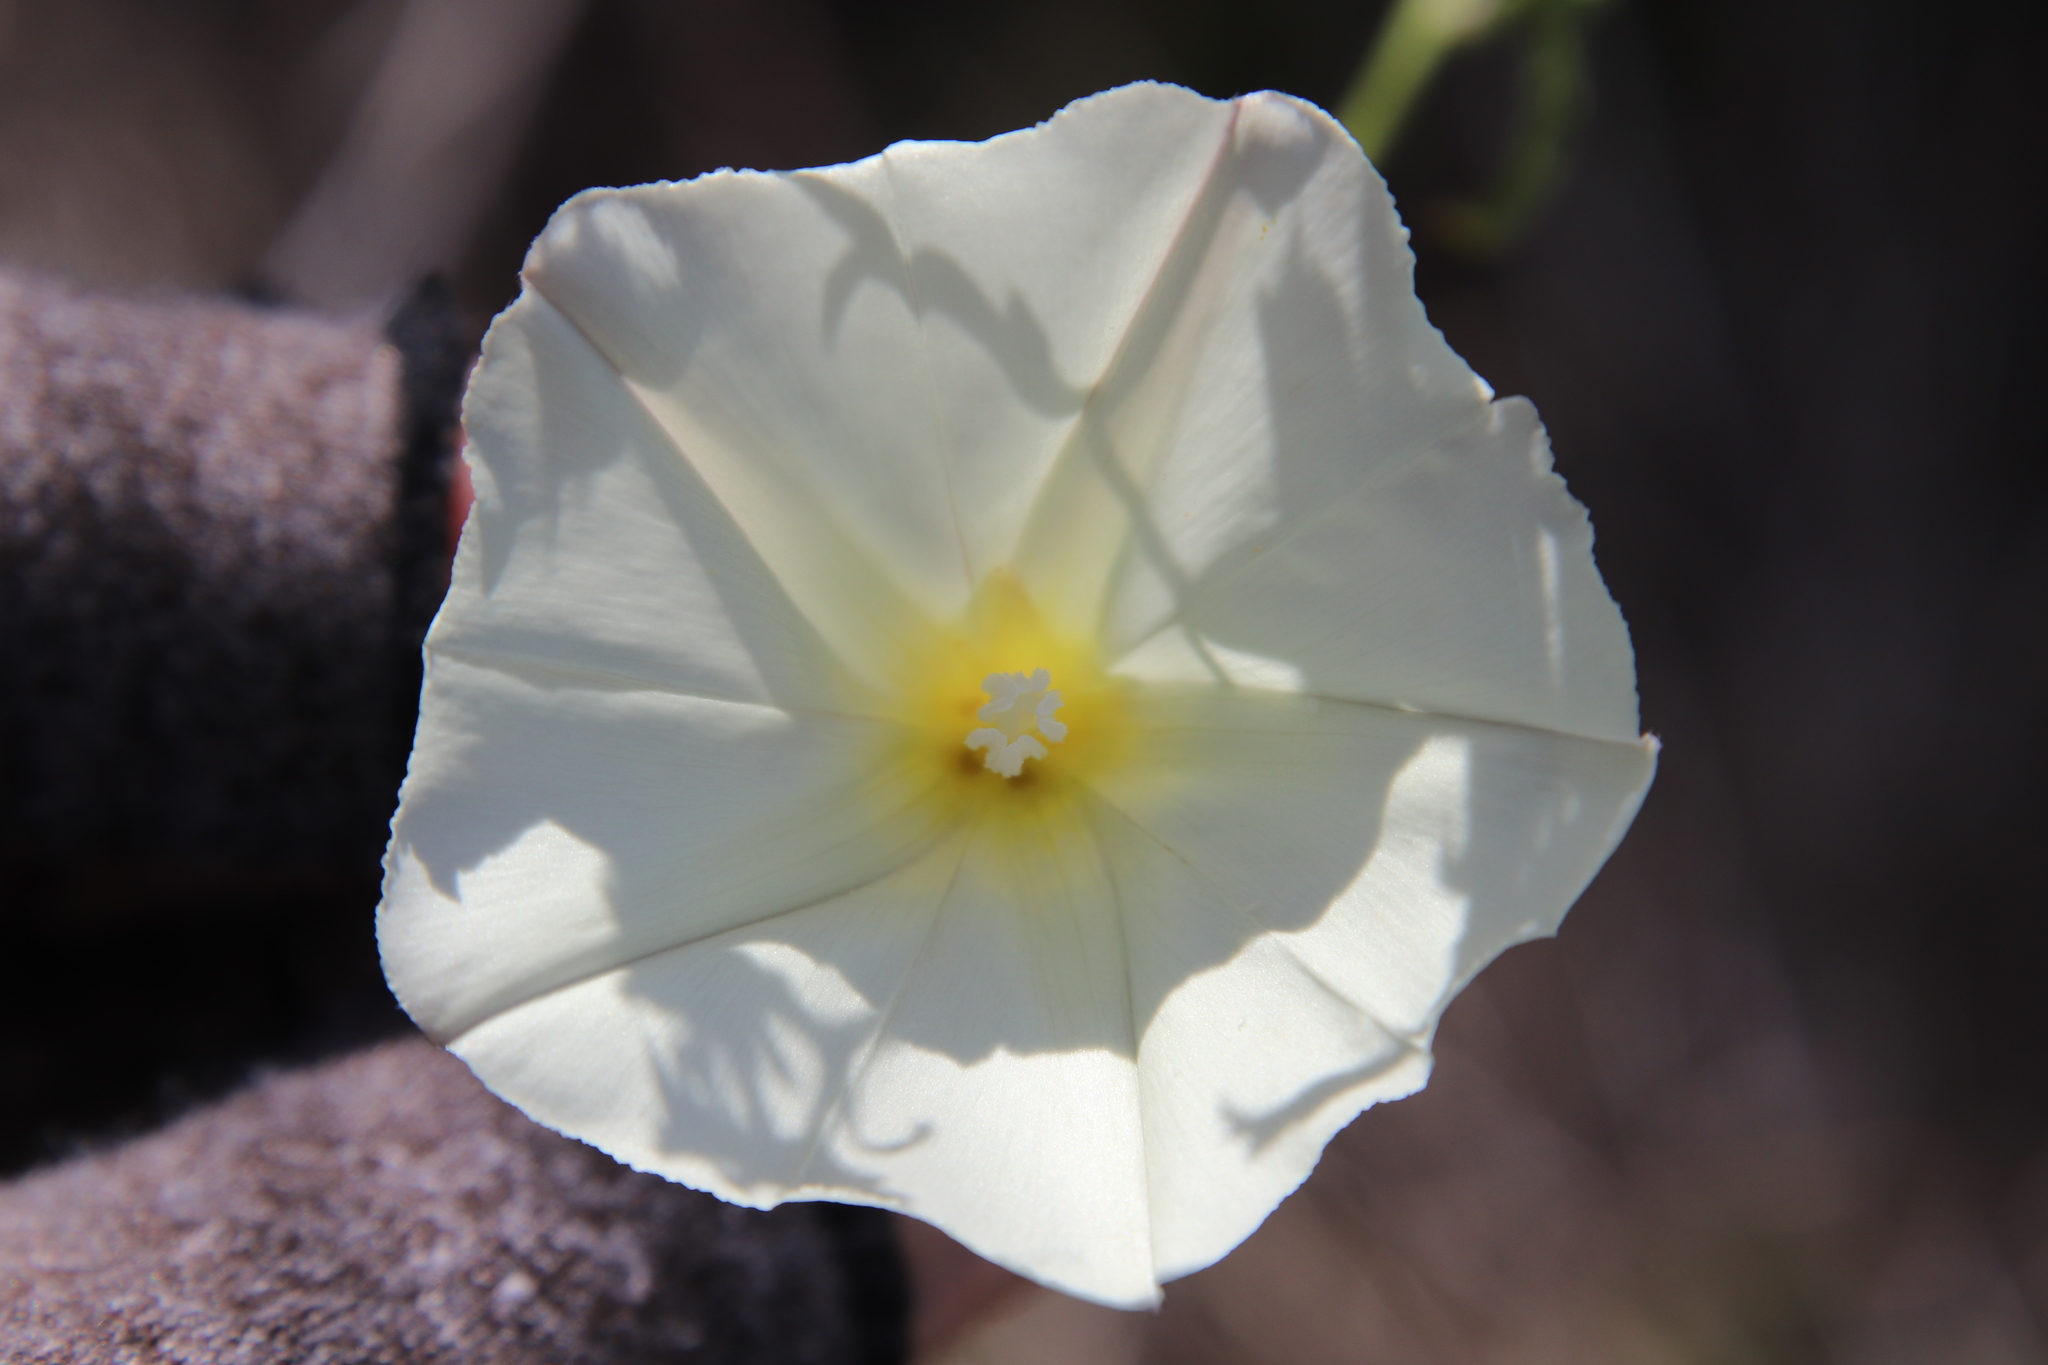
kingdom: Plantae
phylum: Tracheophyta
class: Magnoliopsida
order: Solanales
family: Convolvulaceae
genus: Calystegia
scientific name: Calystegia macrostegia
